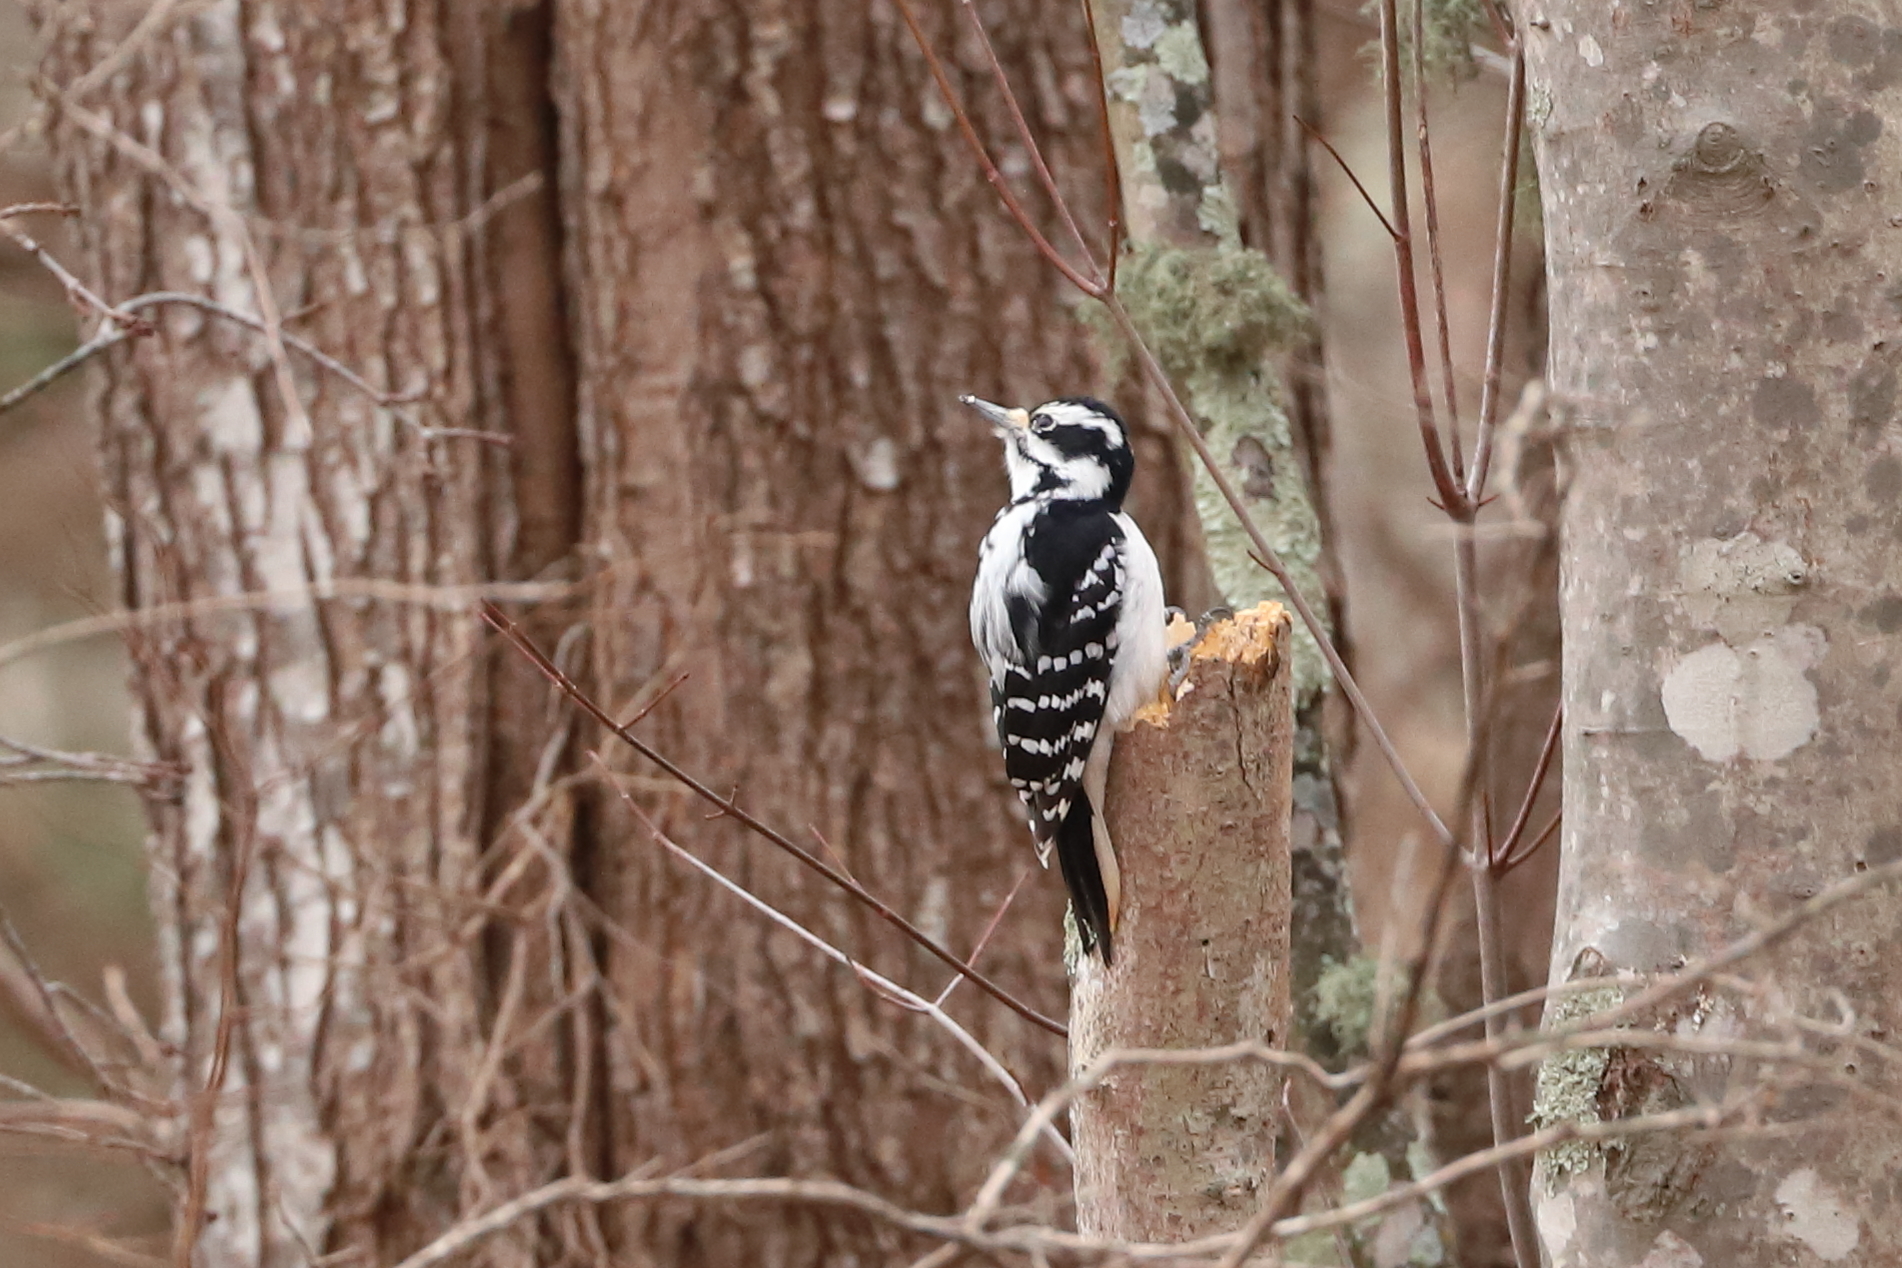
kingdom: Animalia
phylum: Chordata
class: Aves
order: Piciformes
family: Picidae
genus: Leuconotopicus
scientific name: Leuconotopicus villosus
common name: Hairy woodpecker
